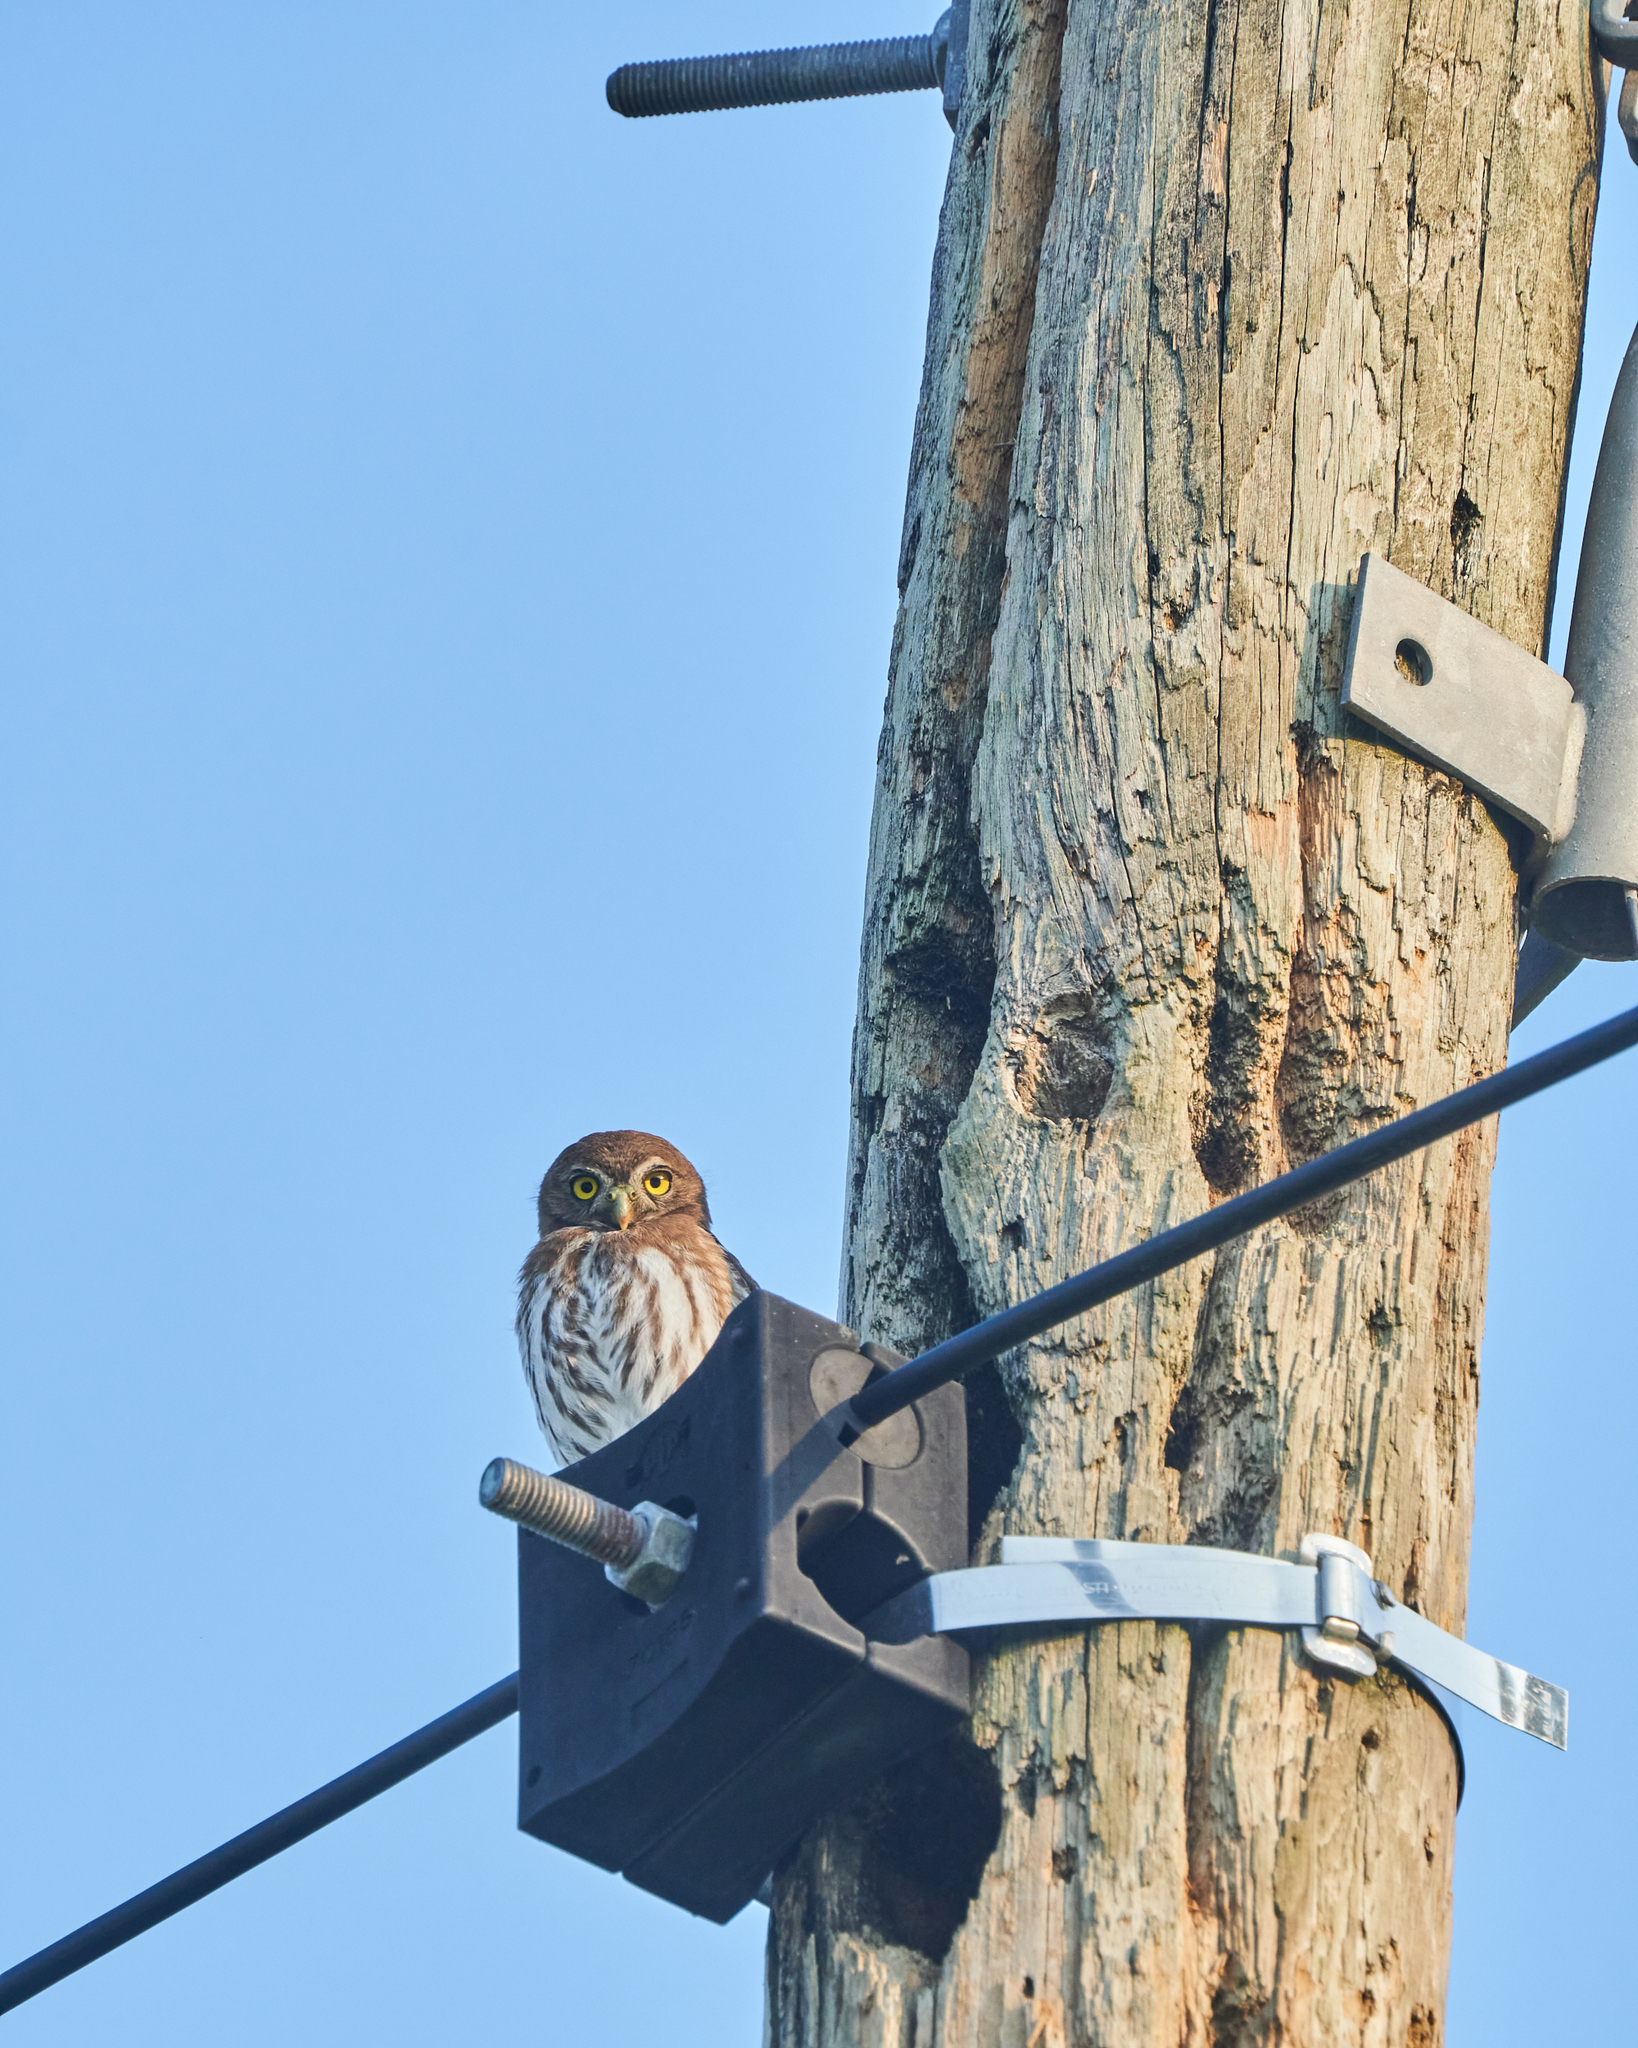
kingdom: Animalia
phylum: Chordata
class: Aves
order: Strigiformes
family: Strigidae
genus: Glaucidium
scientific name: Glaucidium brasilianum
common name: Ferruginous pygmy-owl
